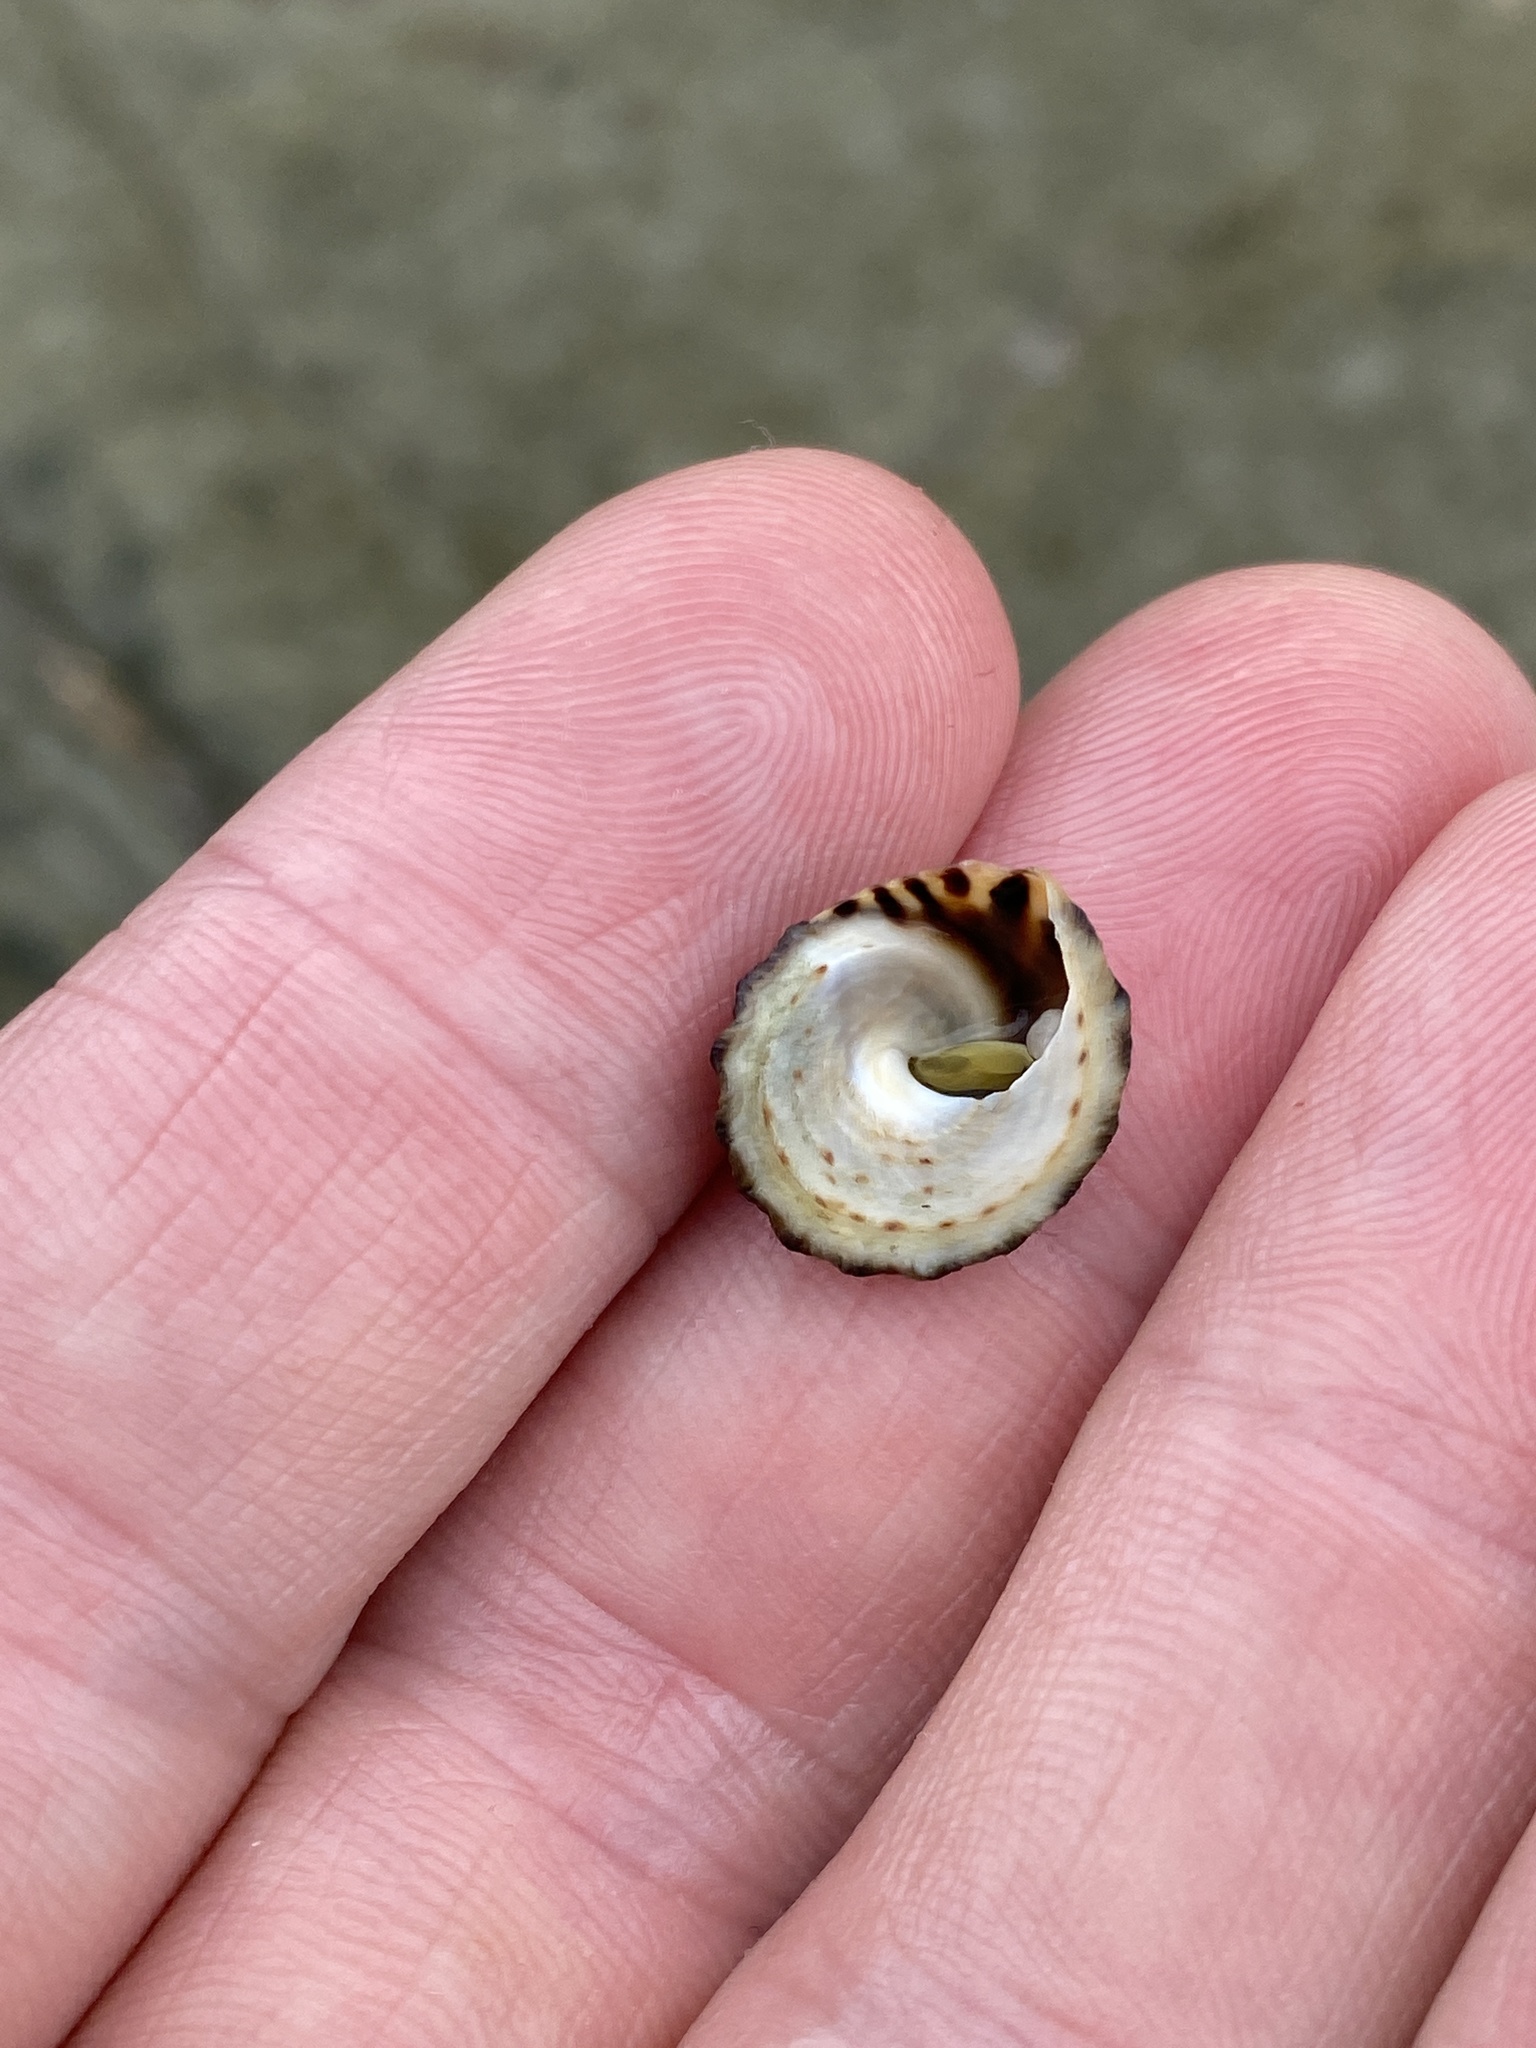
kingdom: Animalia
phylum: Mollusca
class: Gastropoda
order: Littorinimorpha
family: Littorinidae
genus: Bembicium
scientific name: Bembicium nanum
